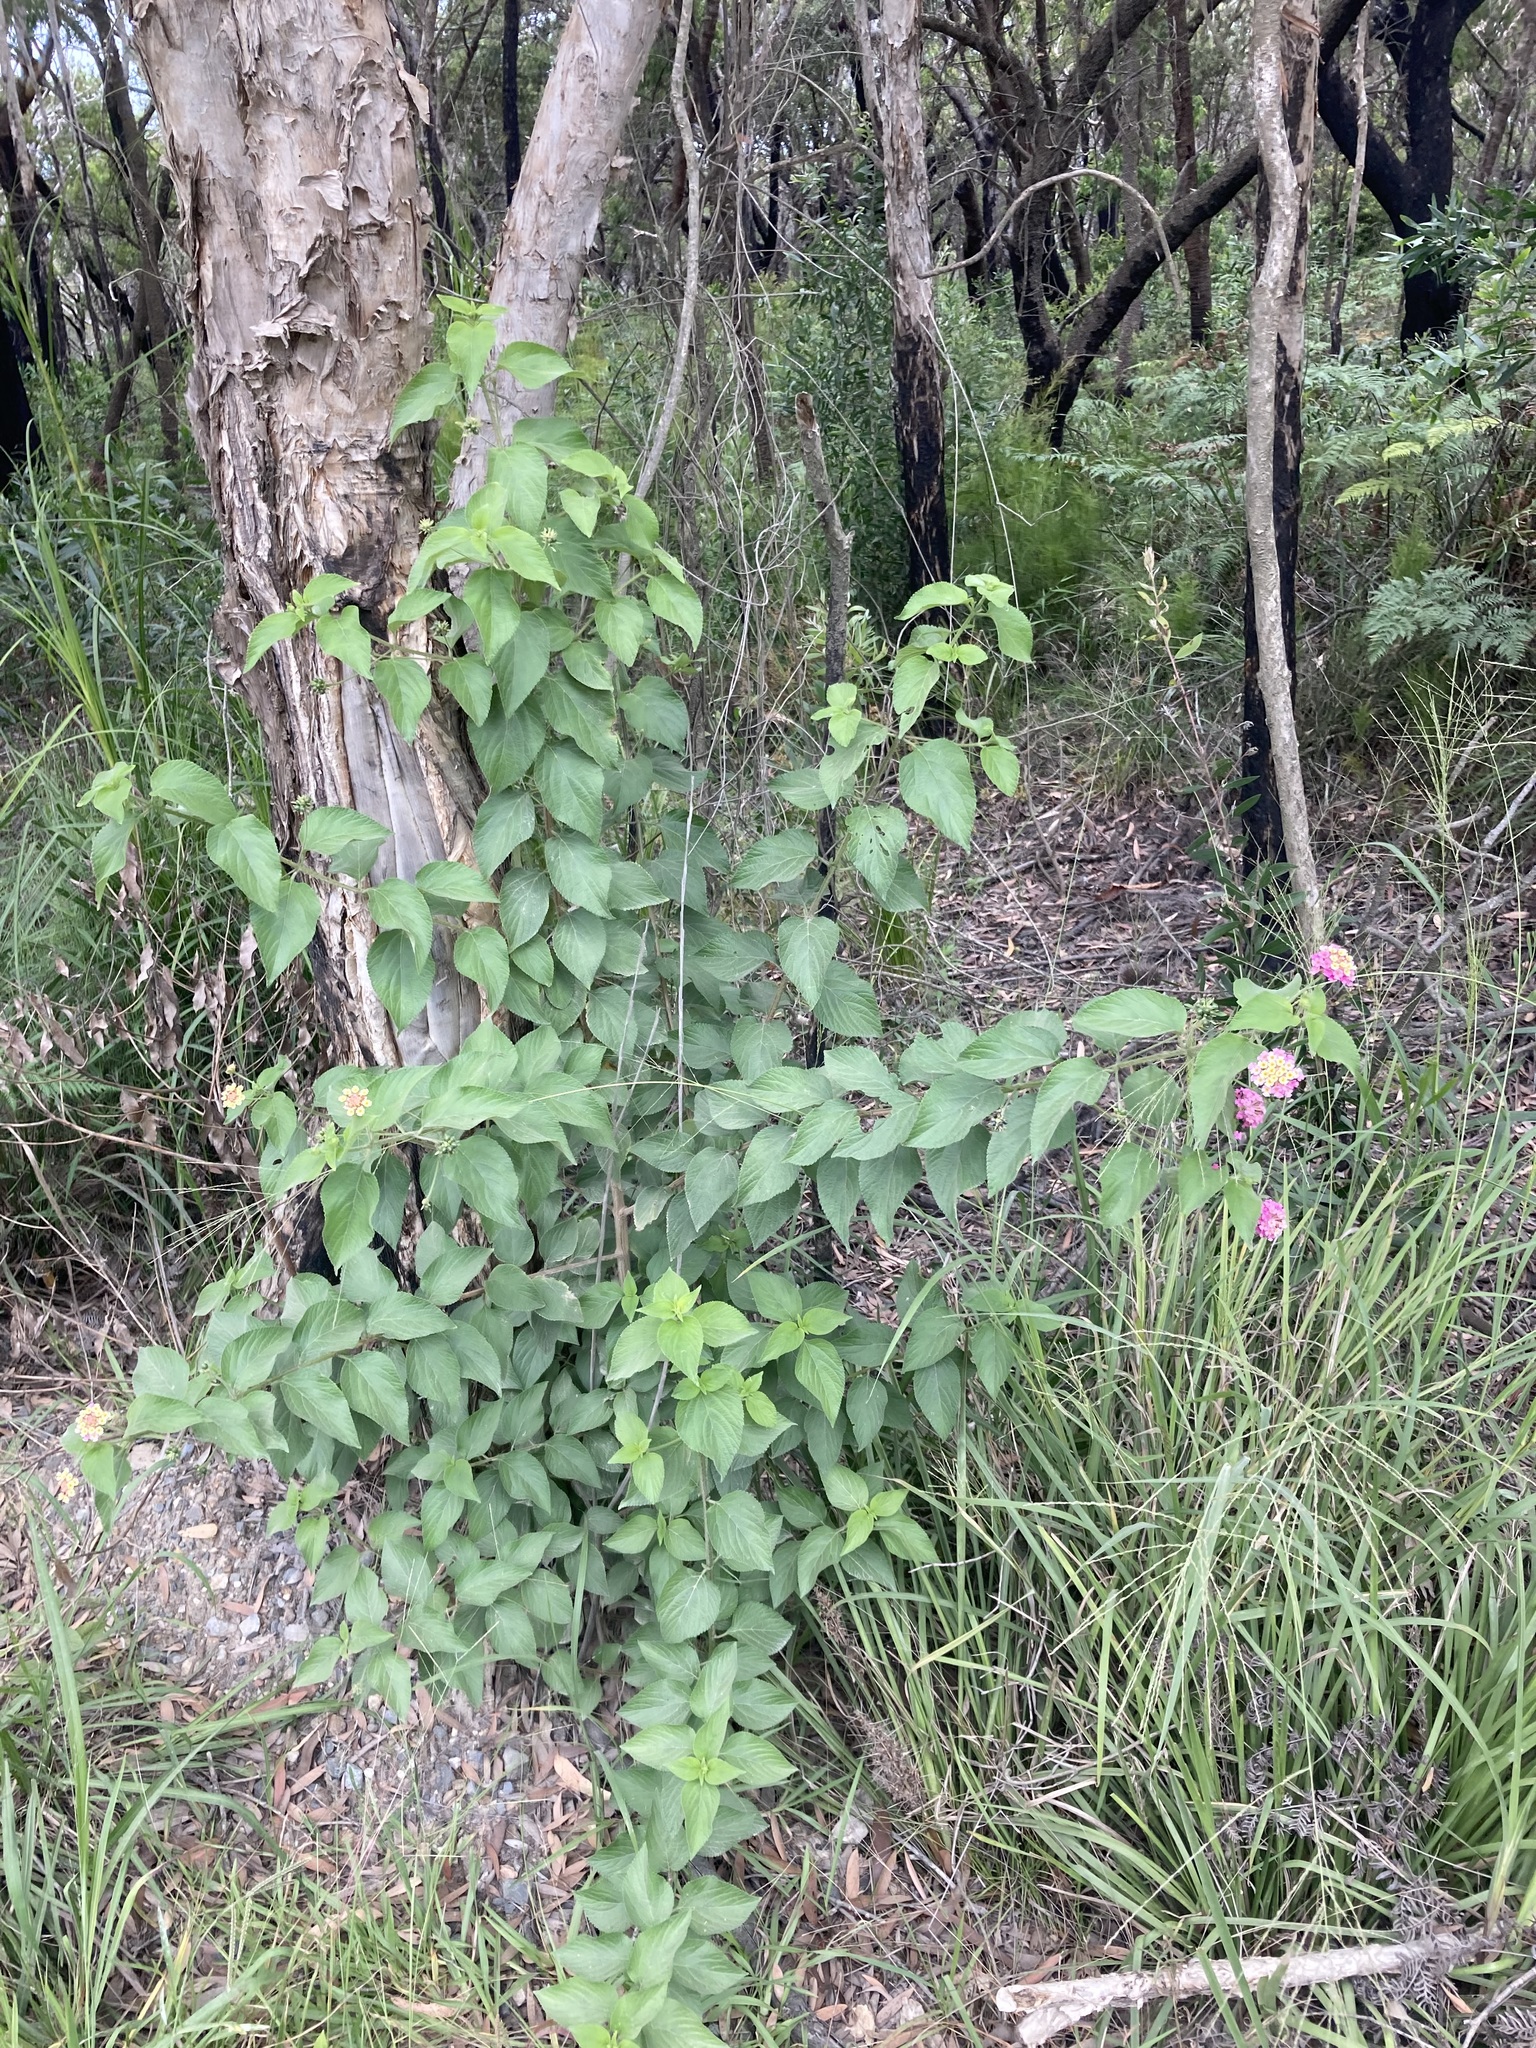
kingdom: Plantae
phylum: Tracheophyta
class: Magnoliopsida
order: Lamiales
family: Verbenaceae
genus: Lantana
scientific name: Lantana camara
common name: Lantana
